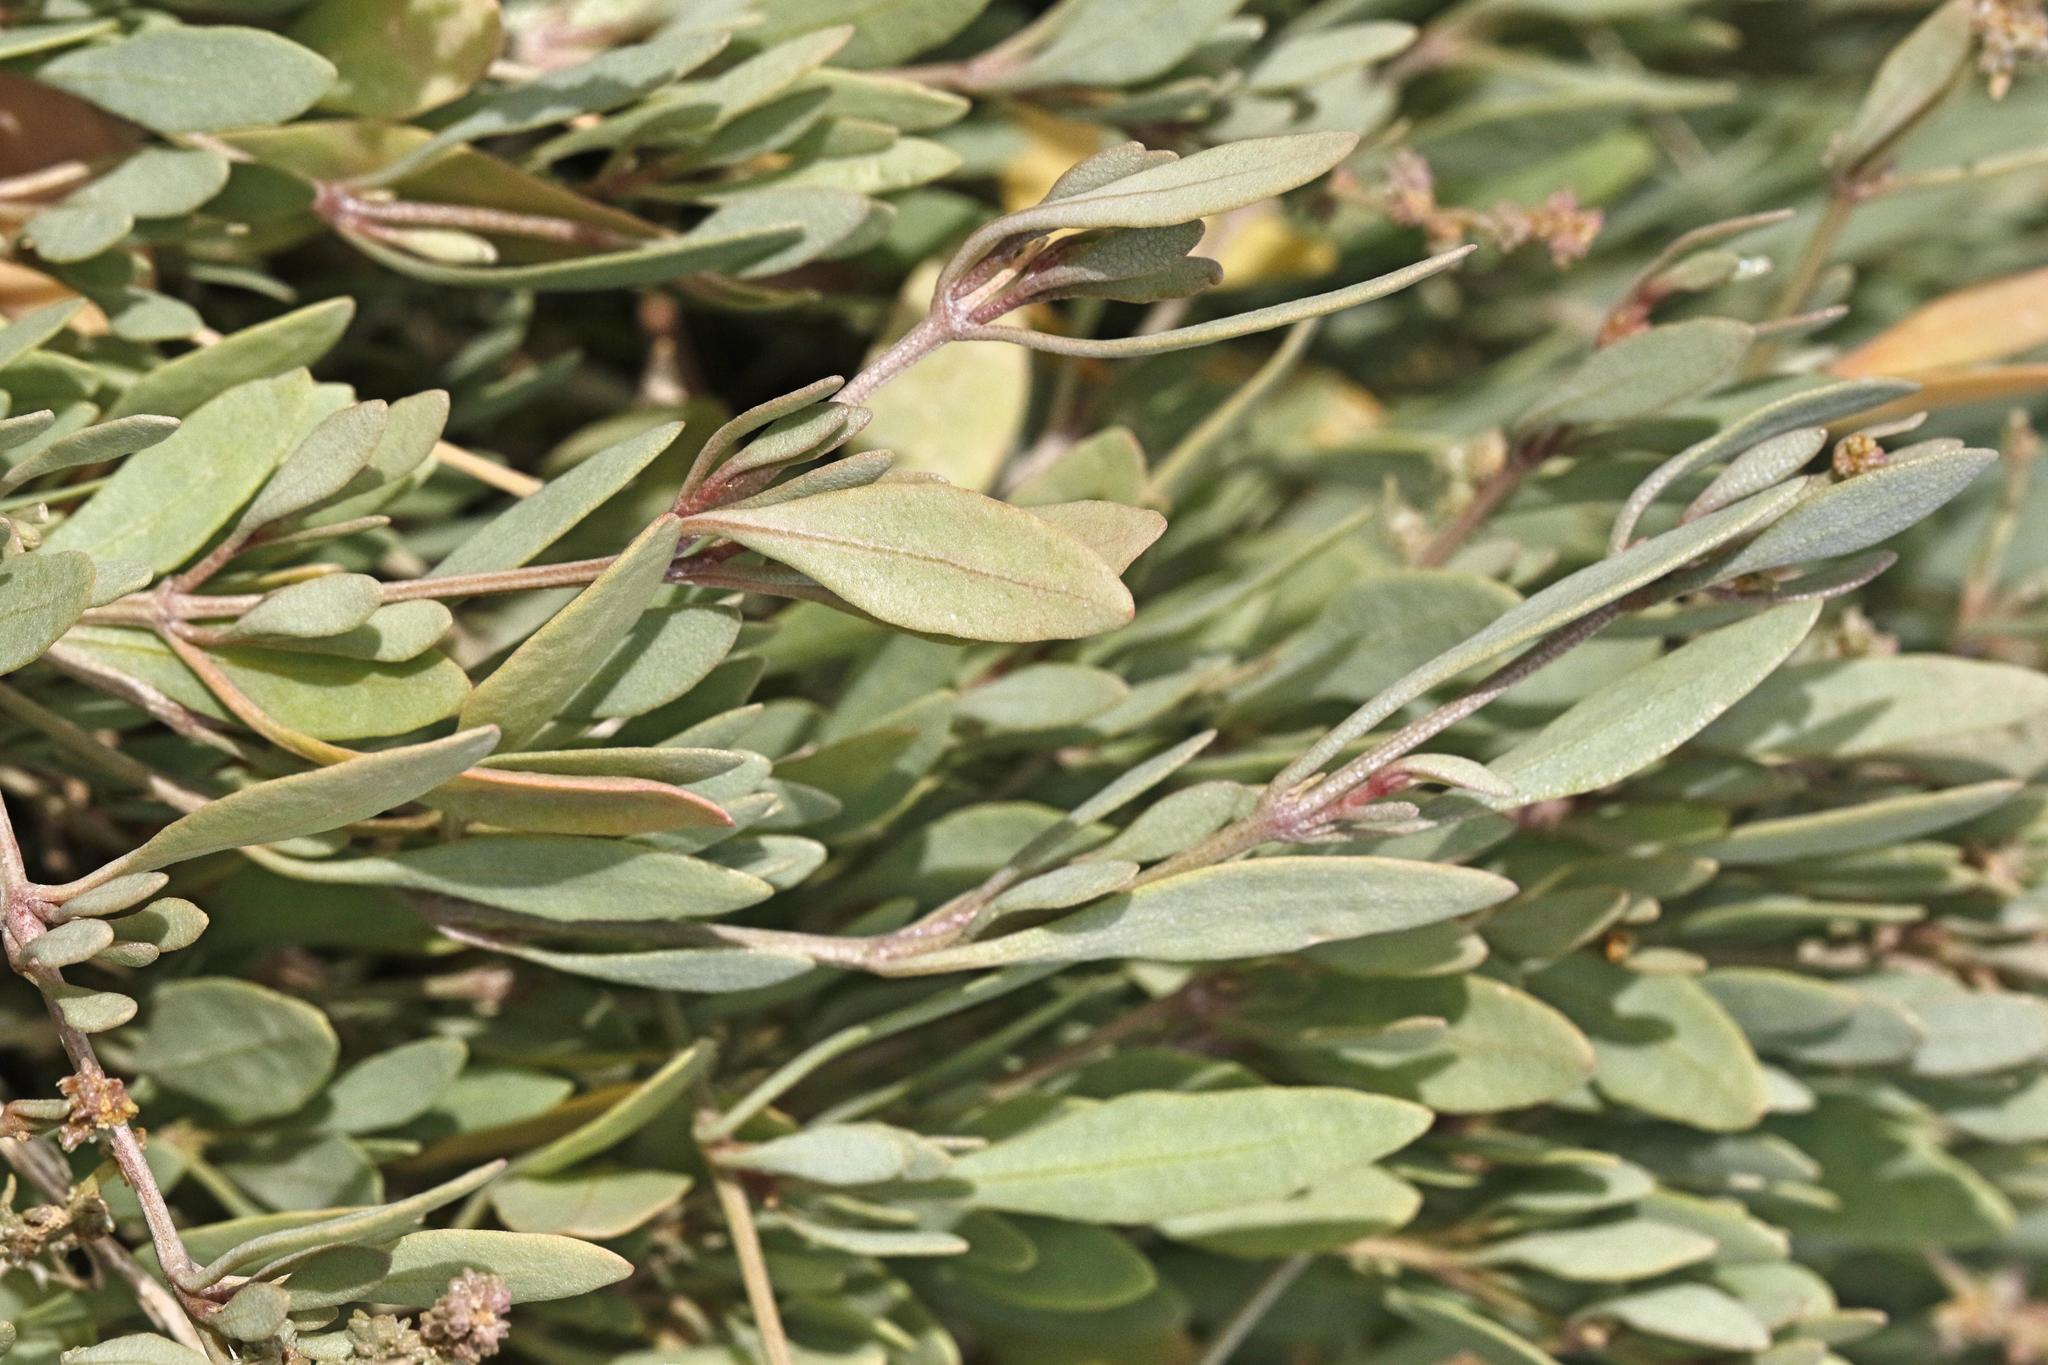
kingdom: Plantae
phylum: Tracheophyta
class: Magnoliopsida
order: Caryophyllales
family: Amaranthaceae
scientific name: Amaranthaceae
